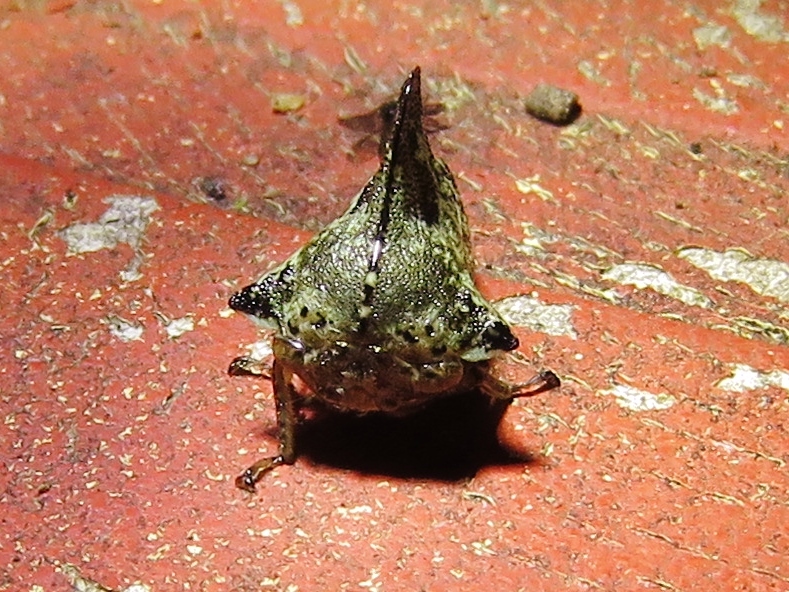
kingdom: Animalia
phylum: Arthropoda
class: Insecta
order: Hemiptera
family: Membracidae
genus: Telamona
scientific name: Telamona concava
